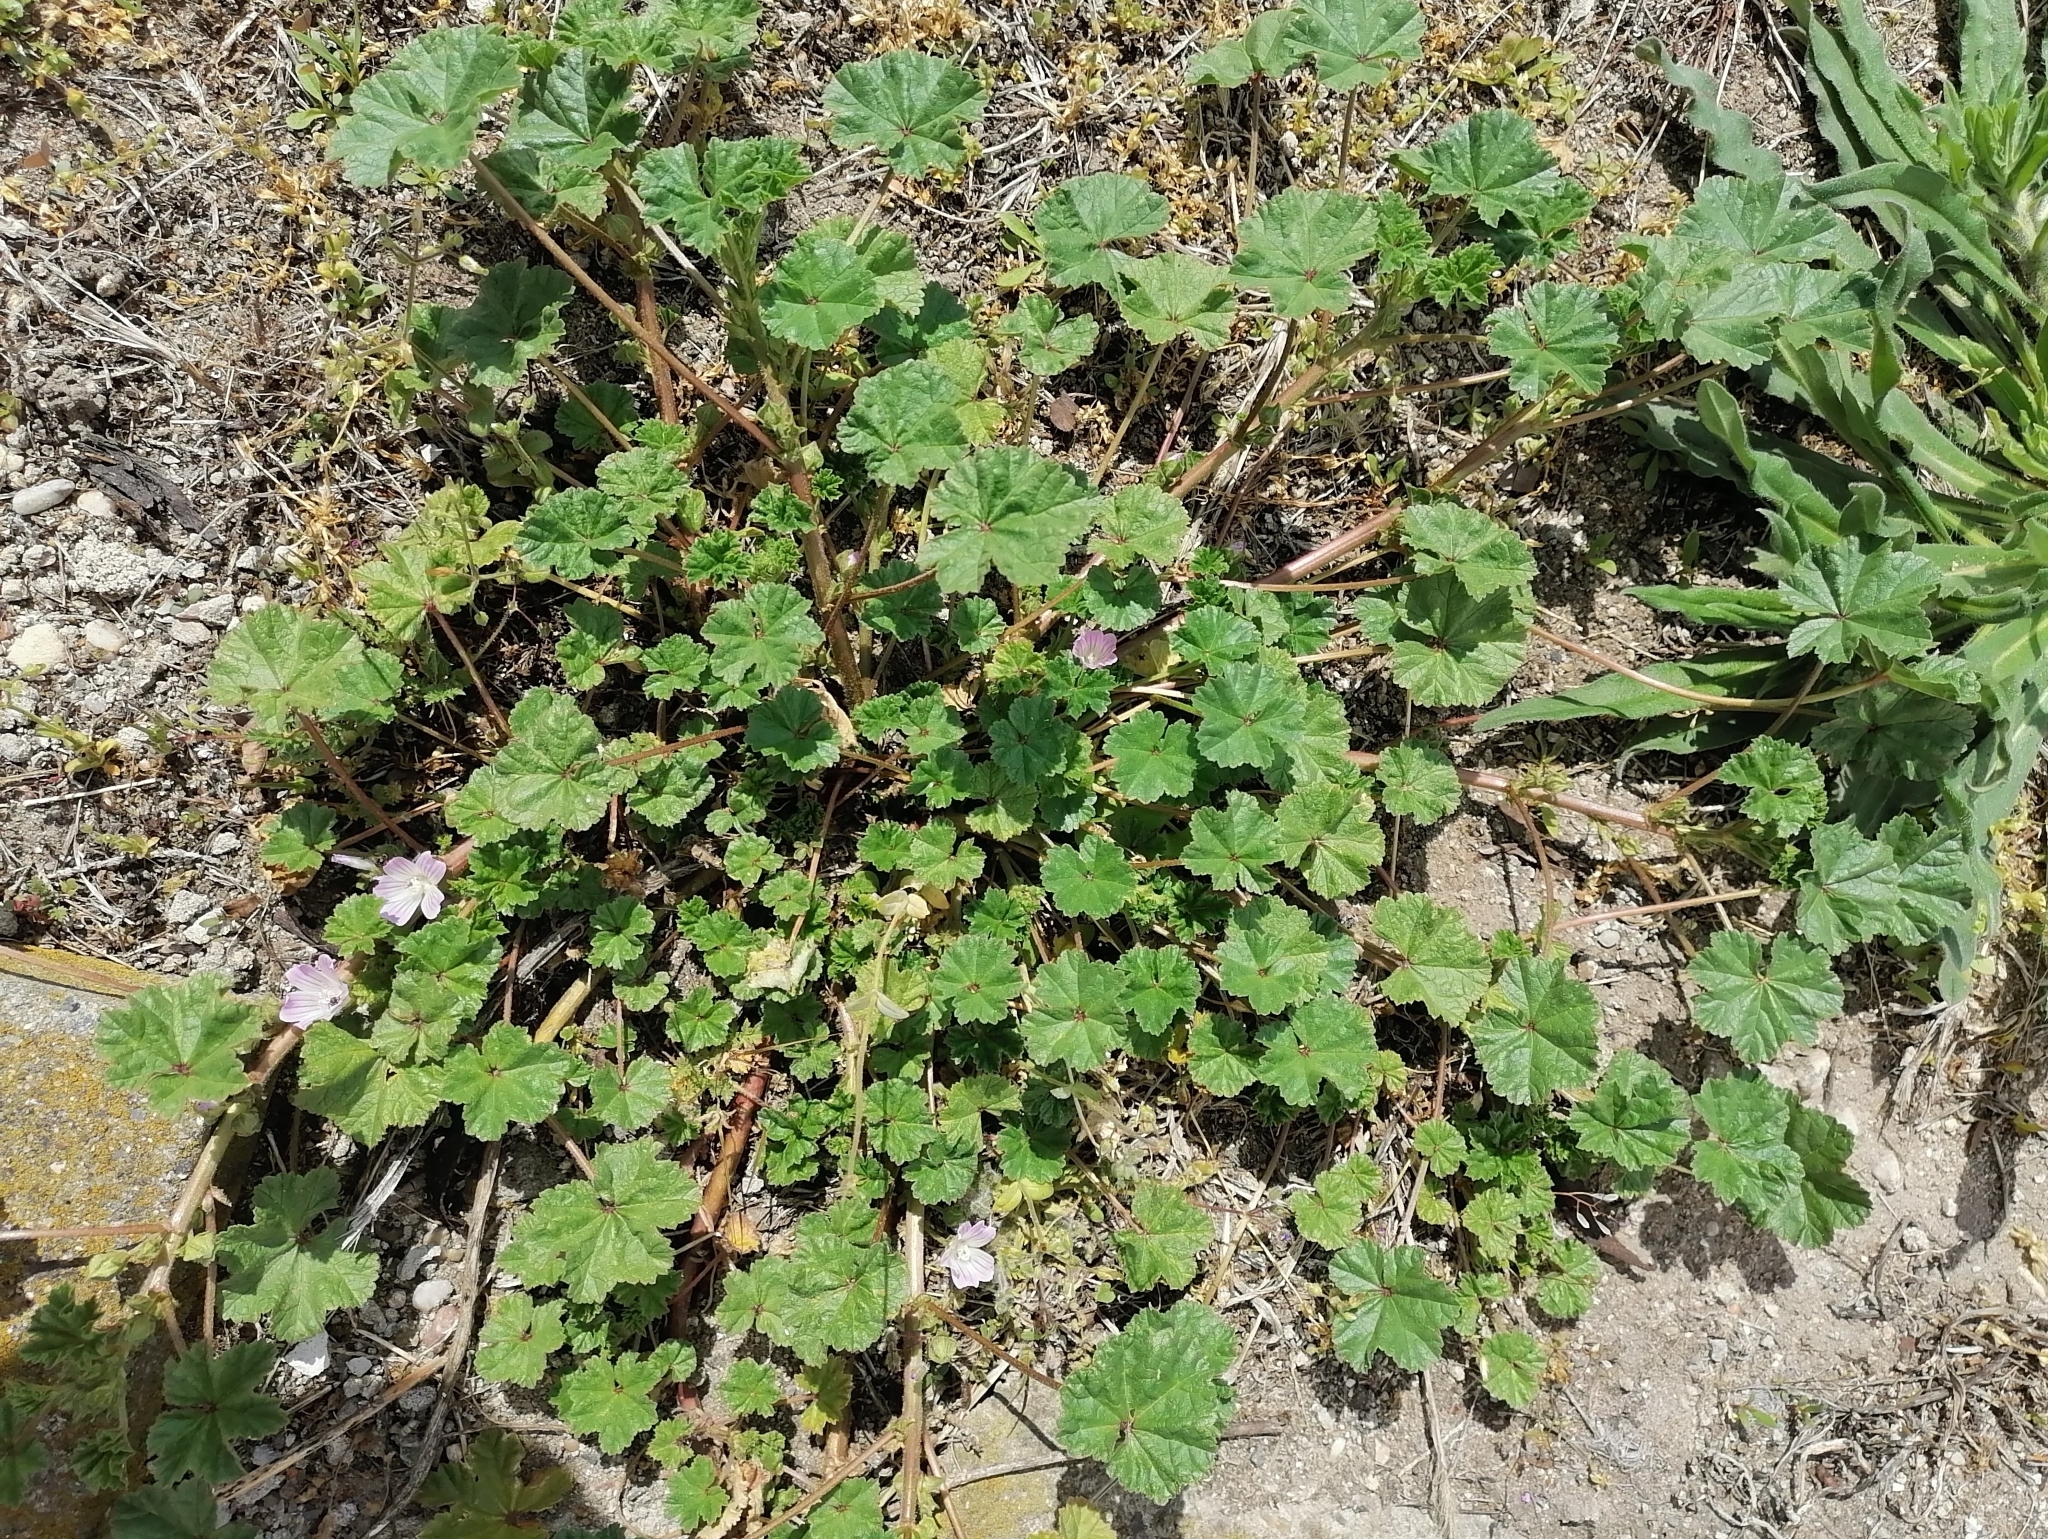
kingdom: Plantae
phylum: Tracheophyta
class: Magnoliopsida
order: Malvales
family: Malvaceae
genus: Malva
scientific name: Malva neglecta
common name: Common mallow
